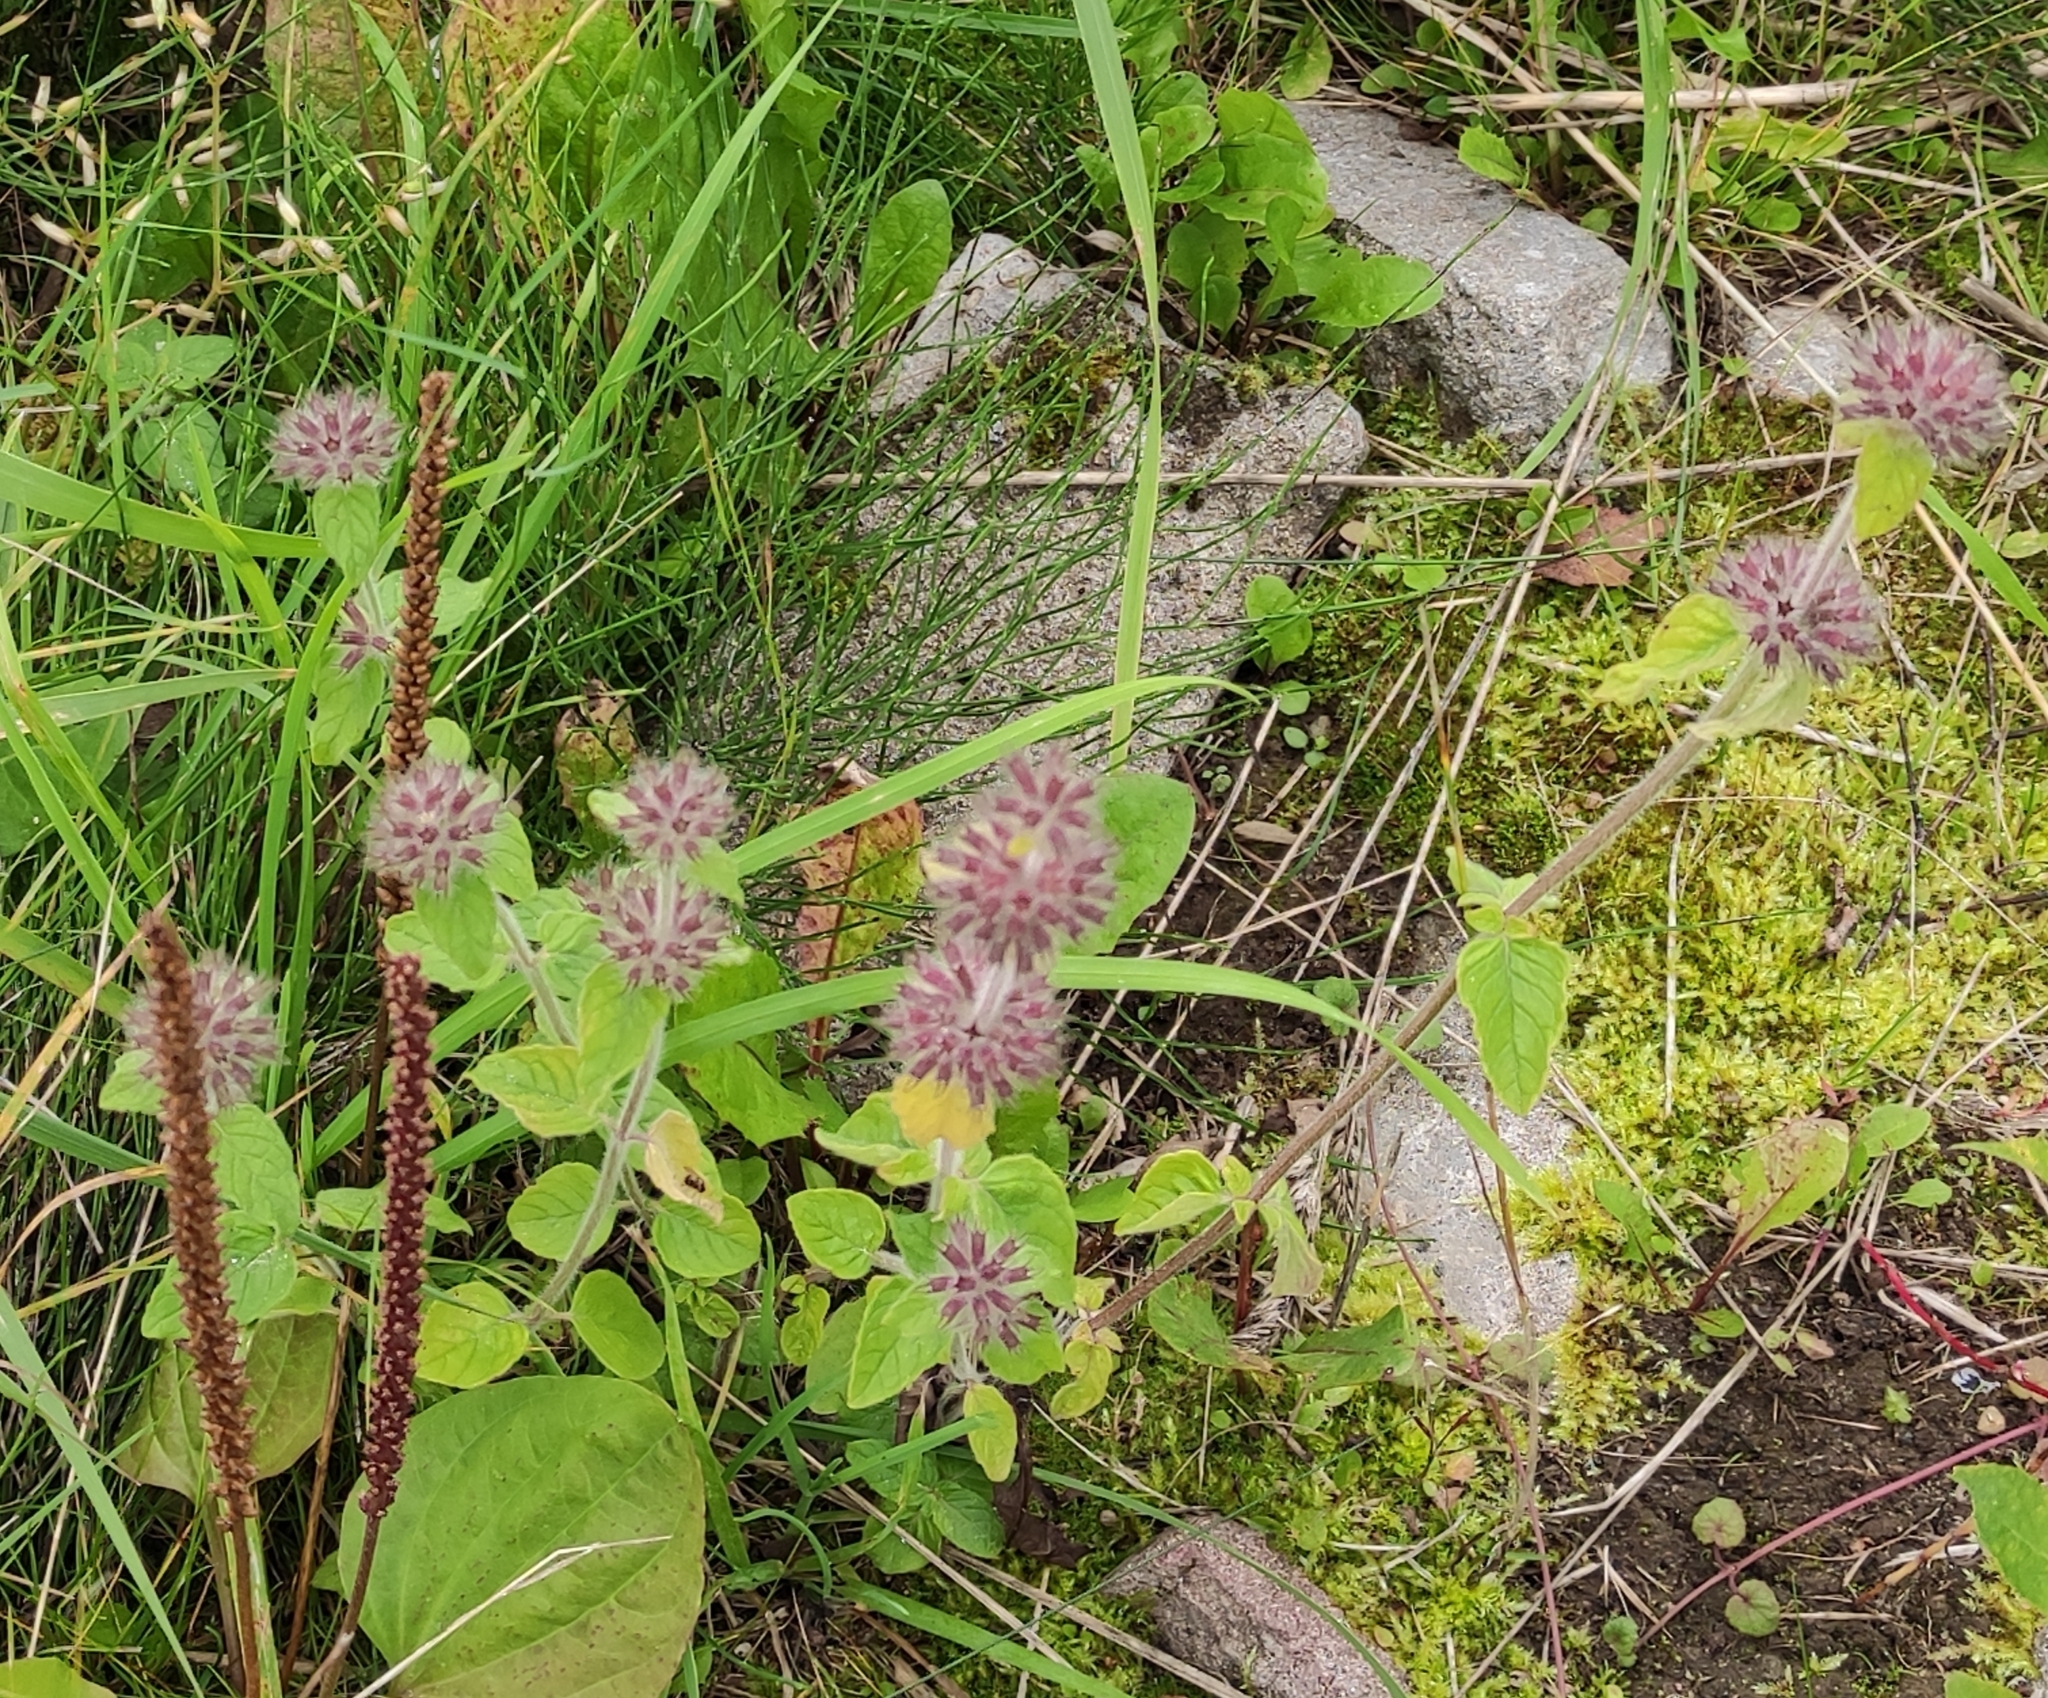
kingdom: Plantae
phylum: Tracheophyta
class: Magnoliopsida
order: Lamiales
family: Lamiaceae
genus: Clinopodium
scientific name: Clinopodium vulgare
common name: Wild basil
